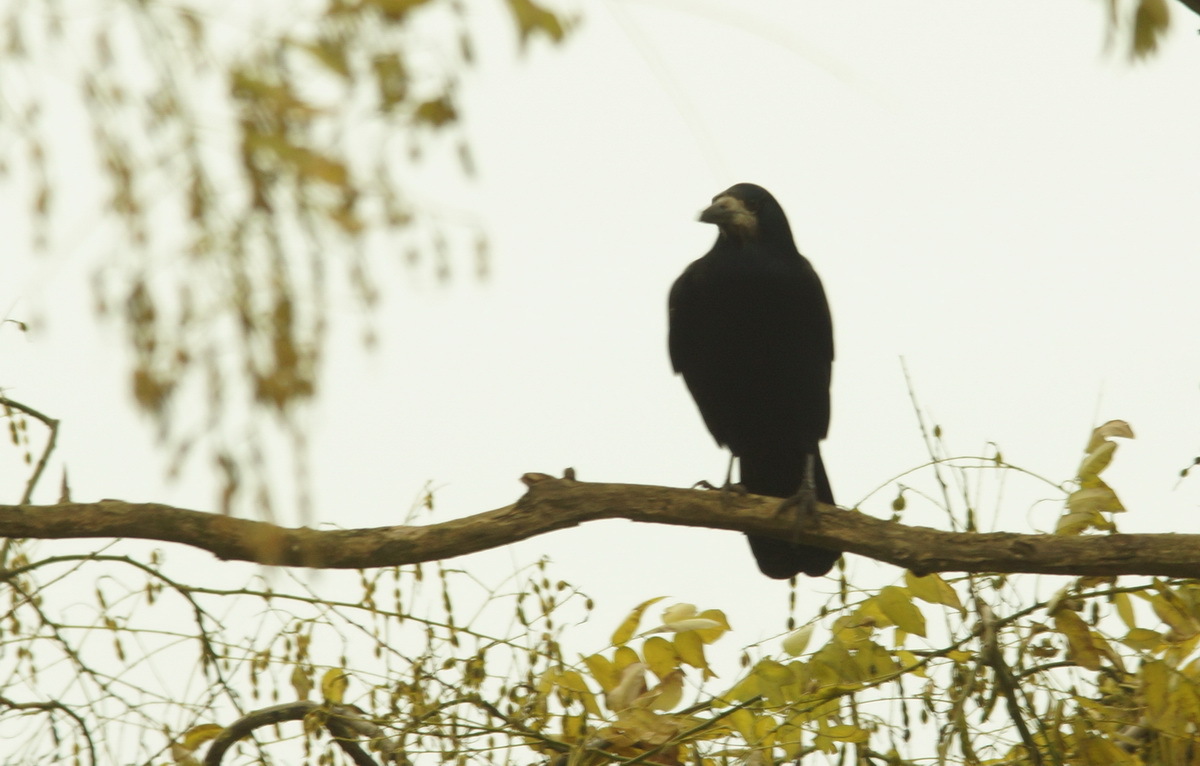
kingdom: Animalia
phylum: Chordata
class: Aves
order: Passeriformes
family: Corvidae
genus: Corvus
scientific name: Corvus frugilegus
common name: Rook
